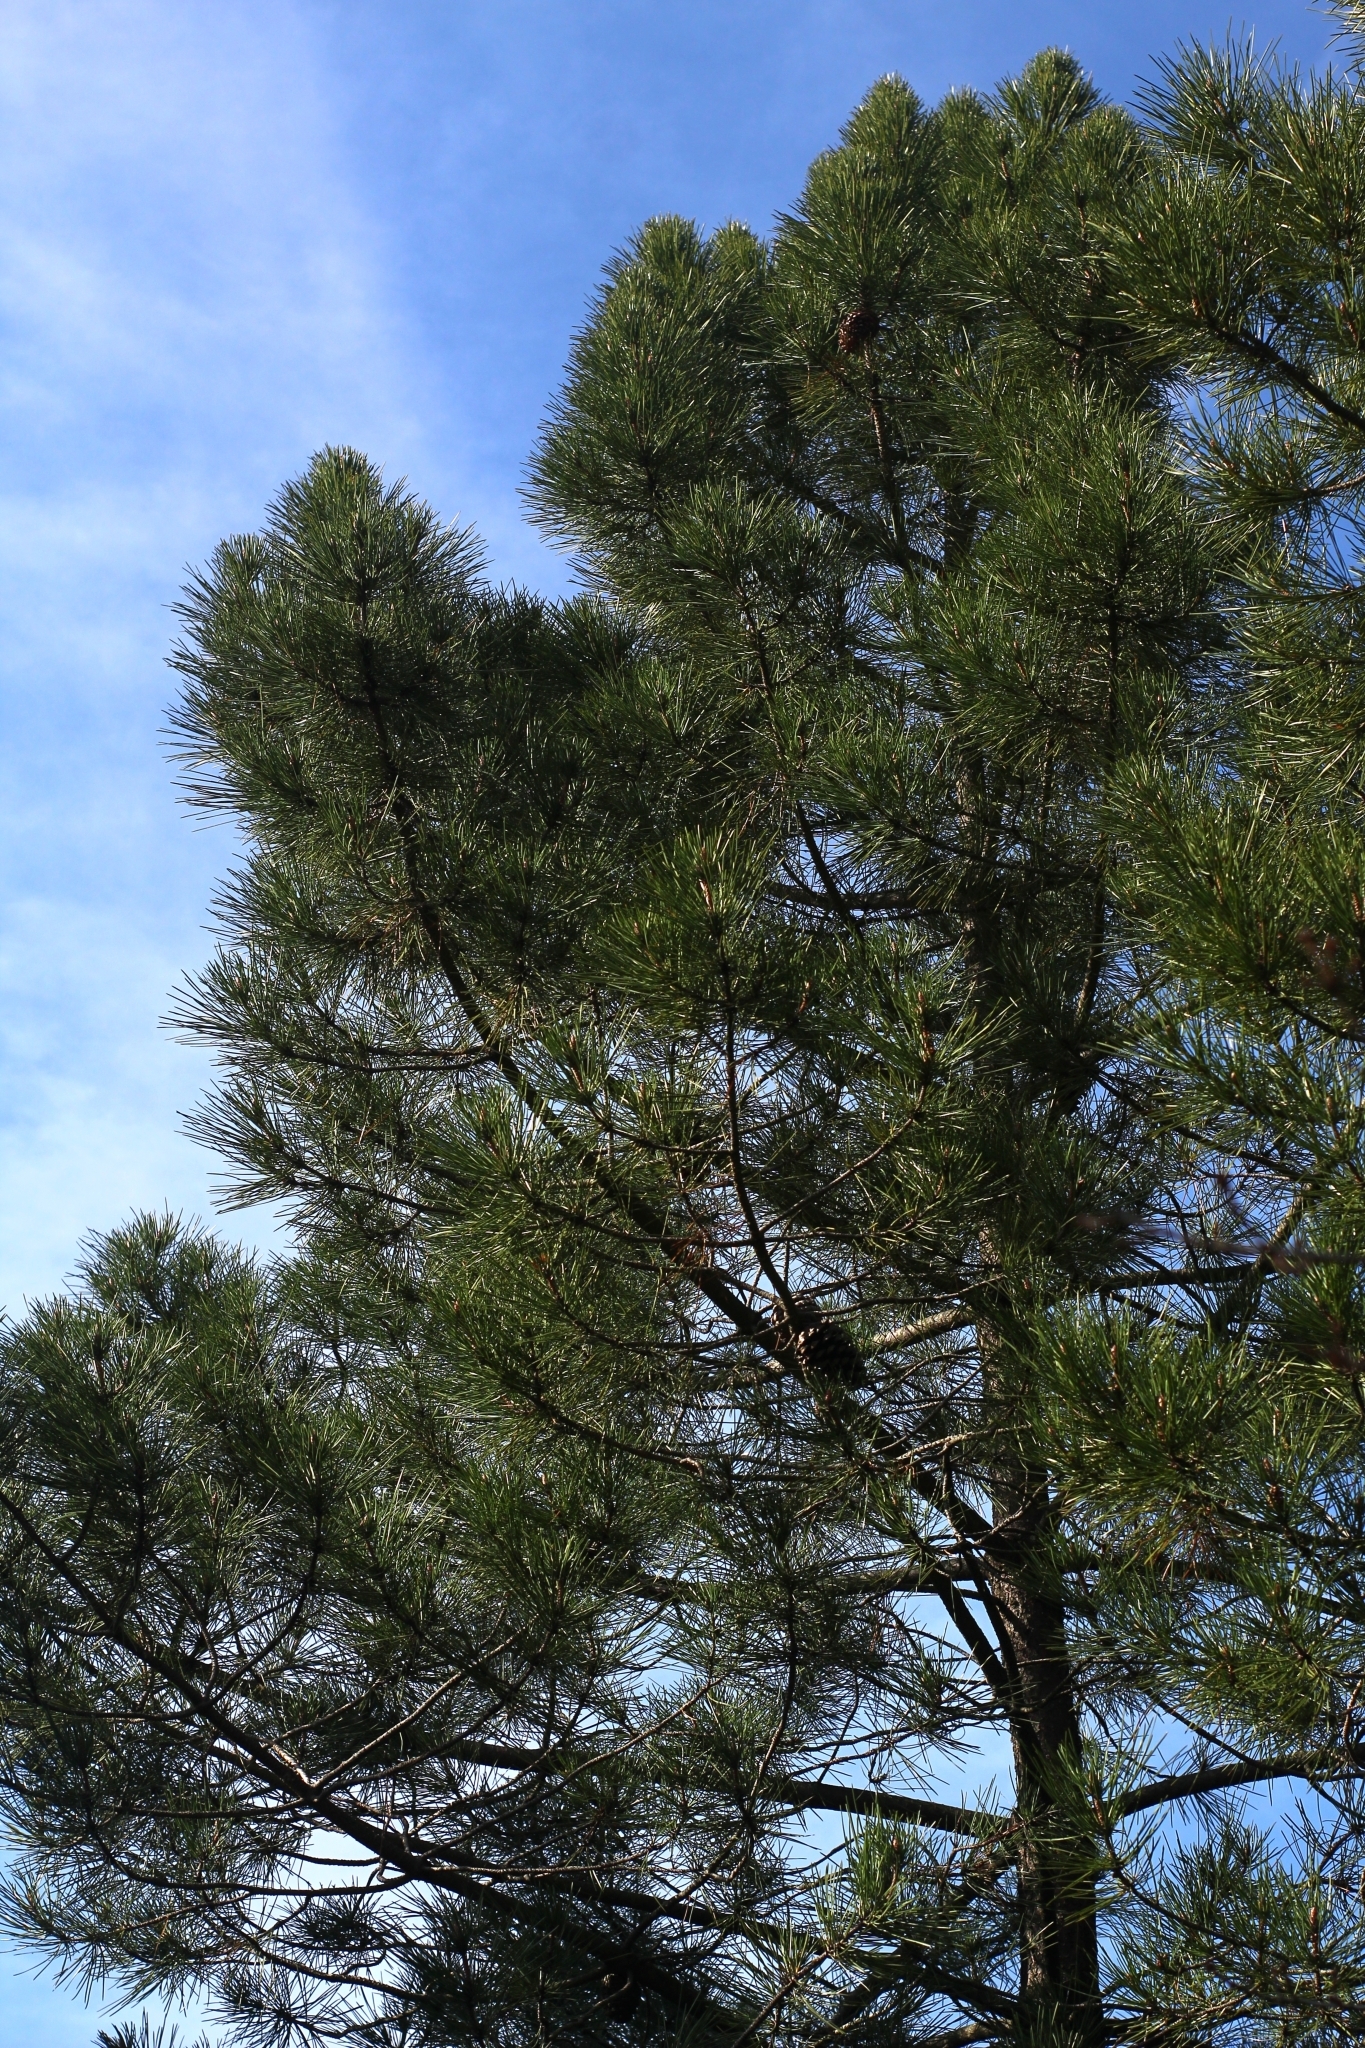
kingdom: Plantae
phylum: Tracheophyta
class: Pinopsida
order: Pinales
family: Pinaceae
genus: Pinus
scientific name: Pinus pinaster
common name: Maritime pine
